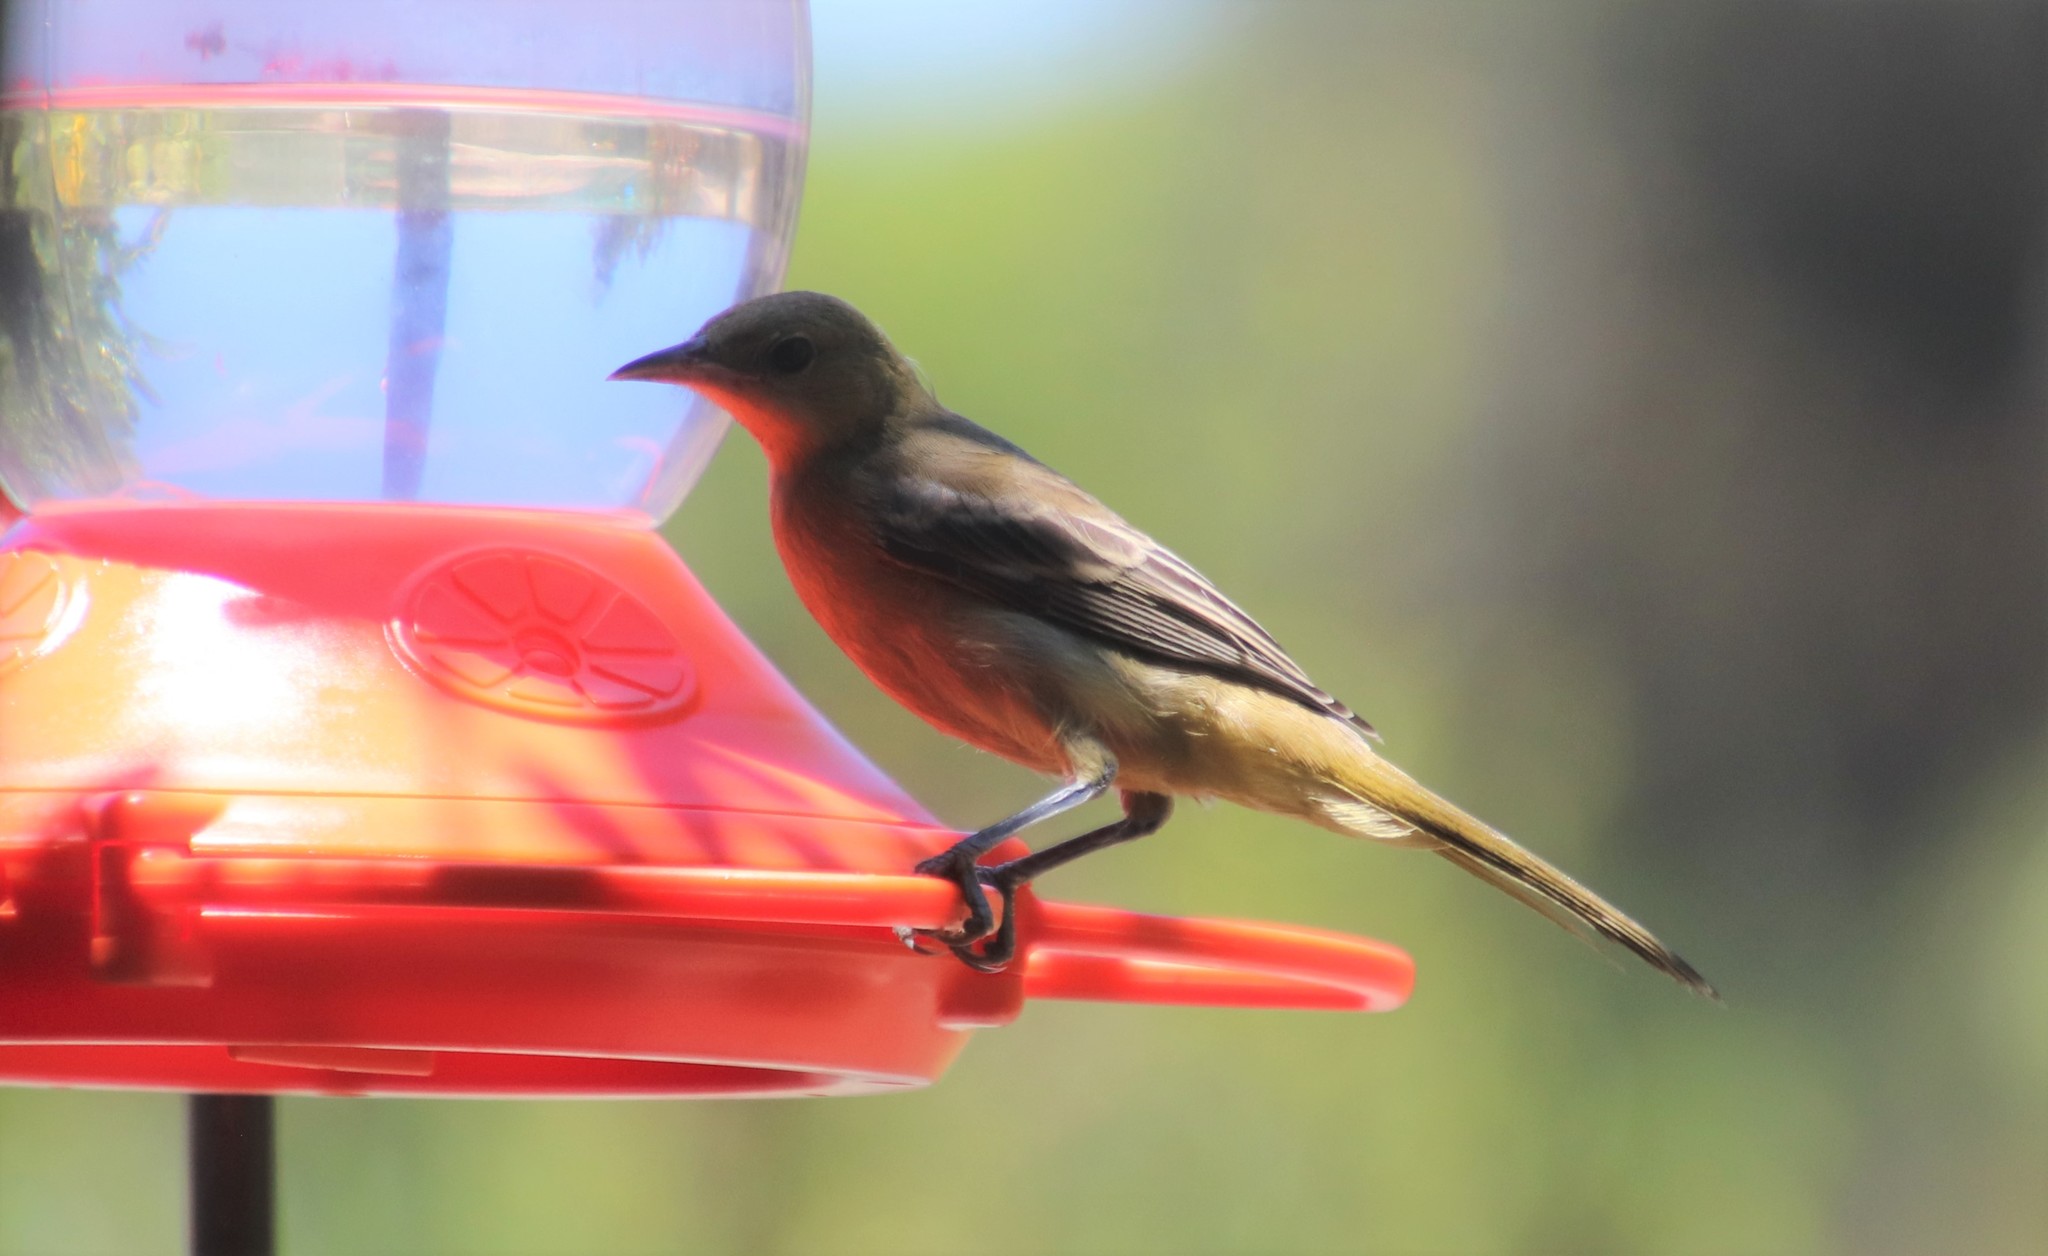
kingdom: Animalia
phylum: Chordata
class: Aves
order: Passeriformes
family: Icteridae
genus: Icterus
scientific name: Icterus cucullatus
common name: Hooded oriole
